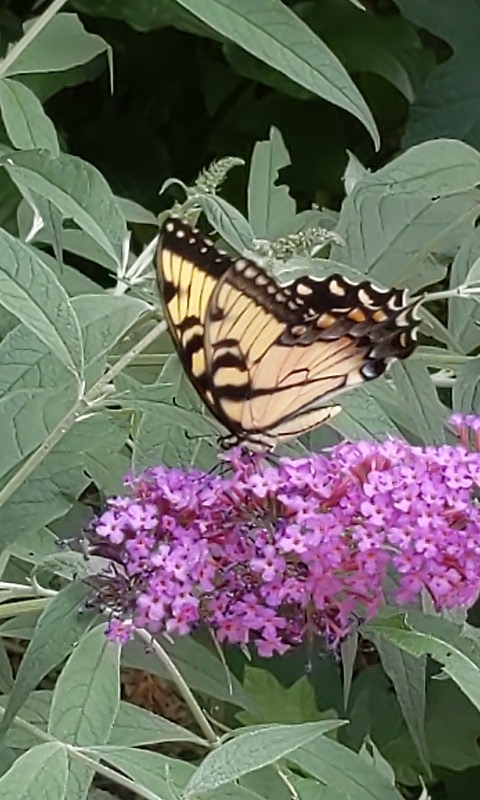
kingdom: Animalia
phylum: Arthropoda
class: Insecta
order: Lepidoptera
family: Papilionidae
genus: Papilio
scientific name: Papilio glaucus
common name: Tiger swallowtail
